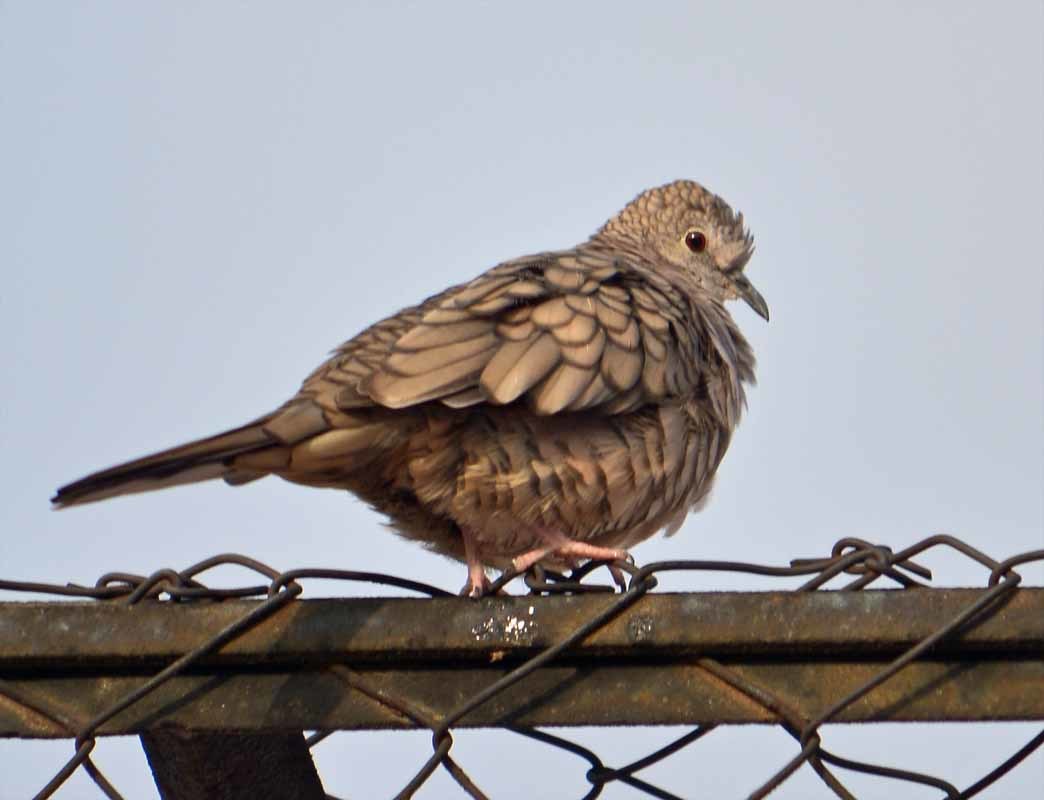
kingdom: Animalia
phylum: Chordata
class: Aves
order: Columbiformes
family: Columbidae
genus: Columbina
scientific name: Columbina inca
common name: Inca dove
